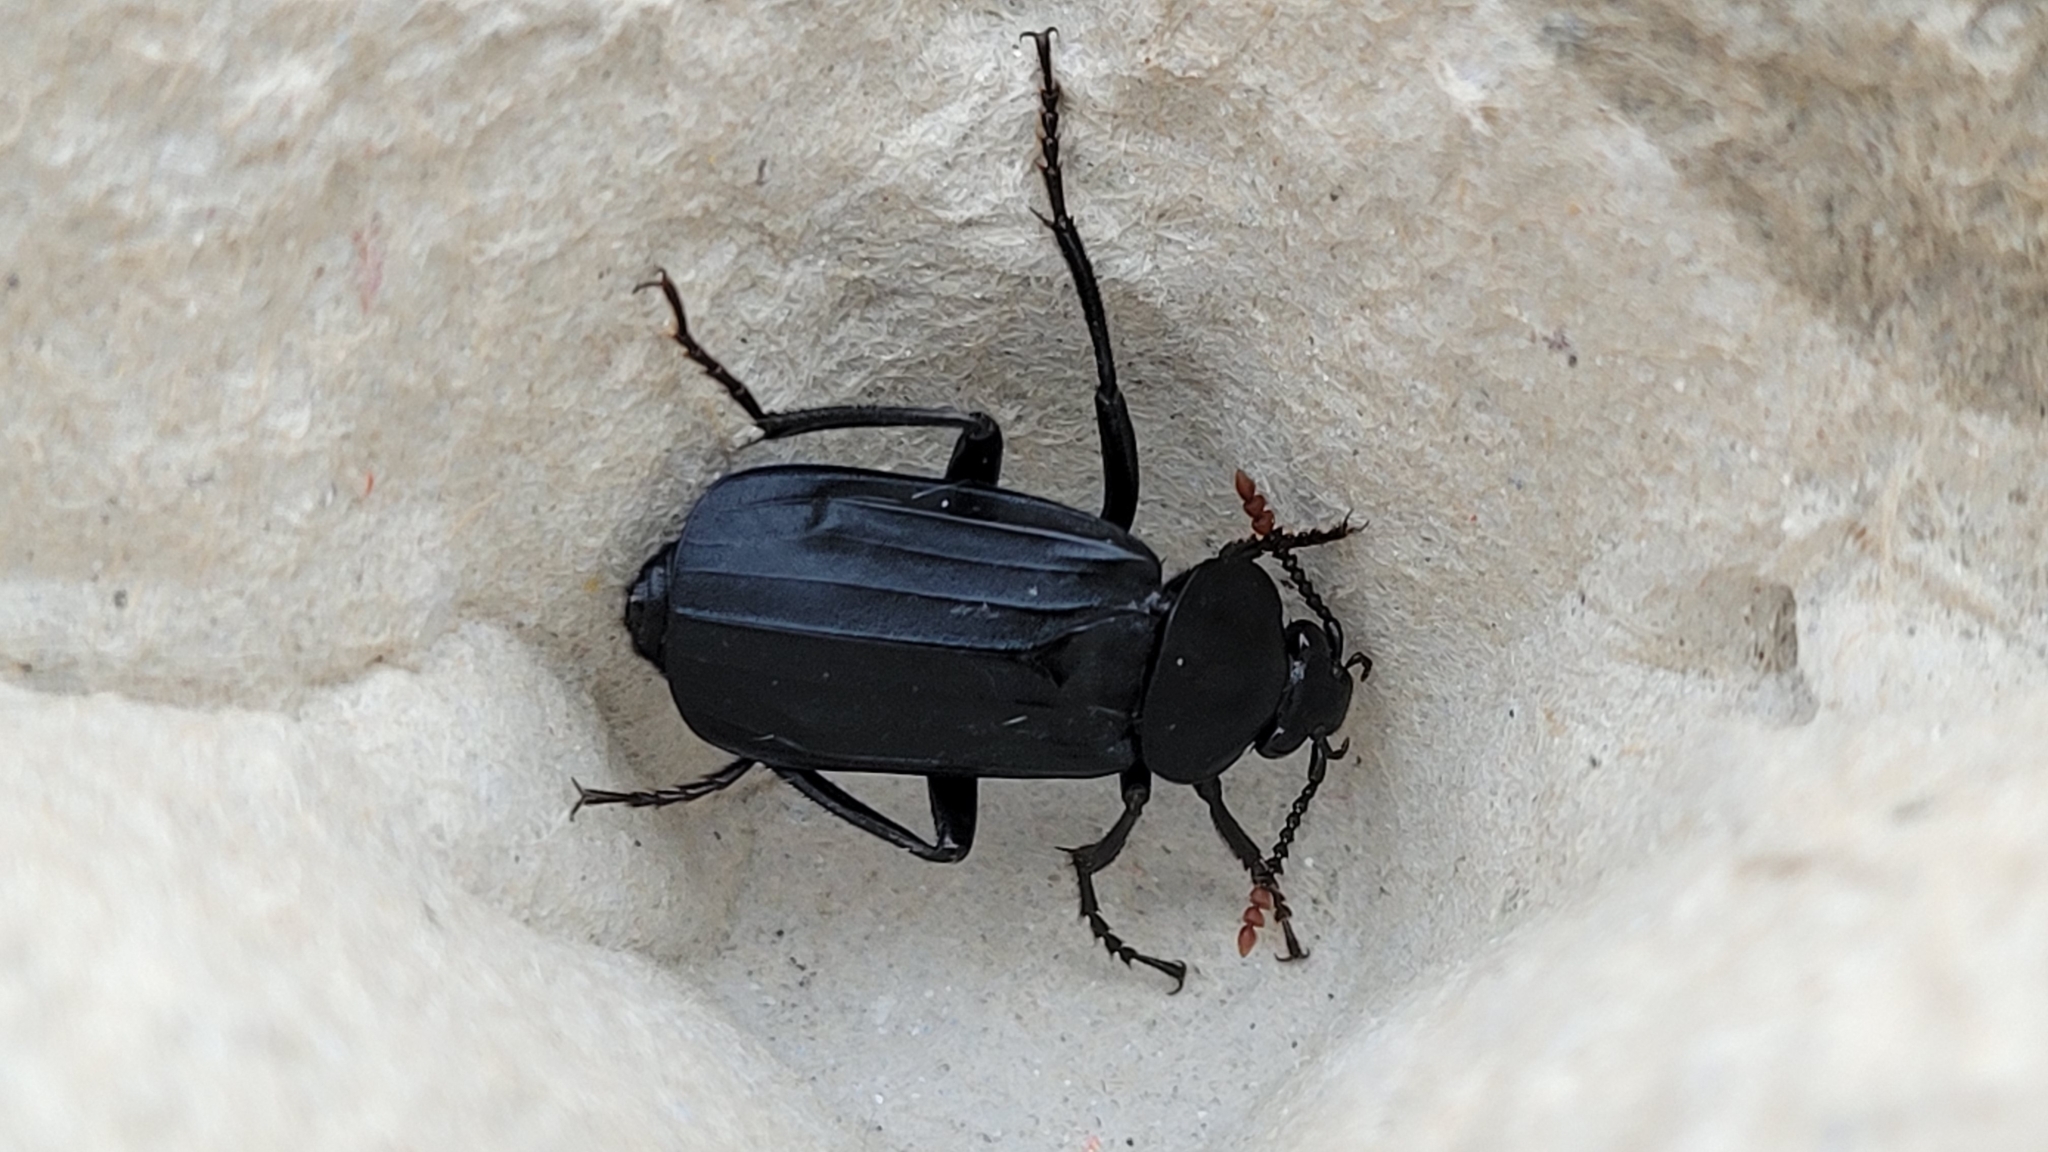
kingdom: Animalia
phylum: Arthropoda
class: Insecta
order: Coleoptera
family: Staphylinidae
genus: Necrodes
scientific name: Necrodes littoralis
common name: Shore sexton beetle
